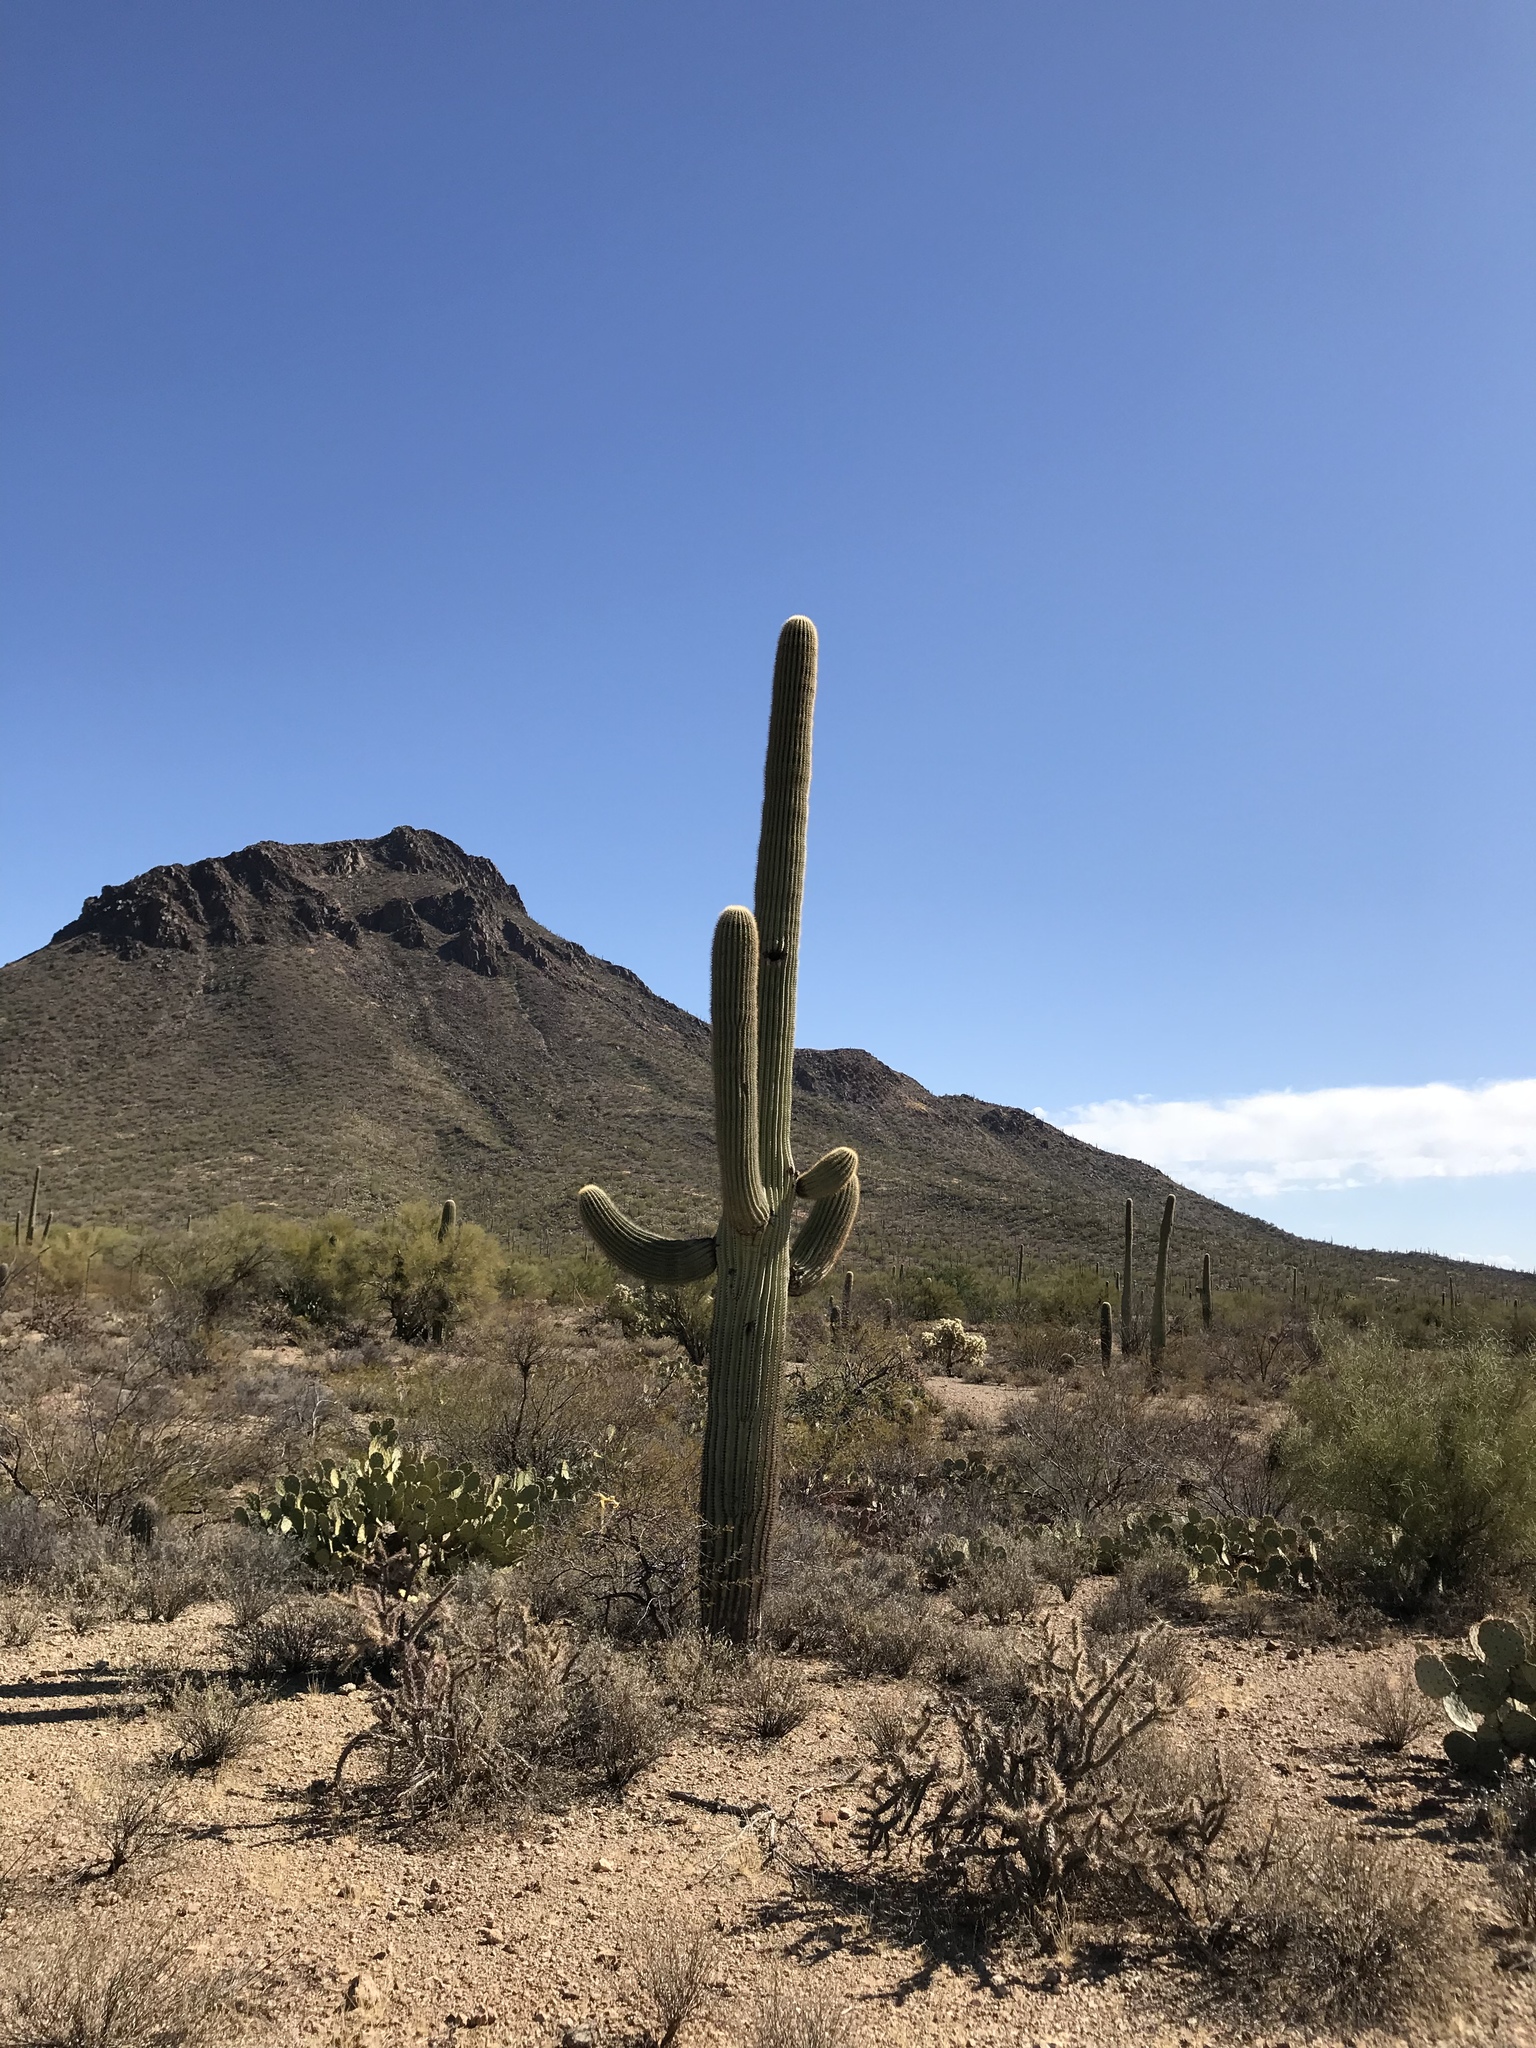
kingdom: Plantae
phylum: Tracheophyta
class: Magnoliopsida
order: Caryophyllales
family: Cactaceae
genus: Carnegiea
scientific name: Carnegiea gigantea
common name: Saguaro
